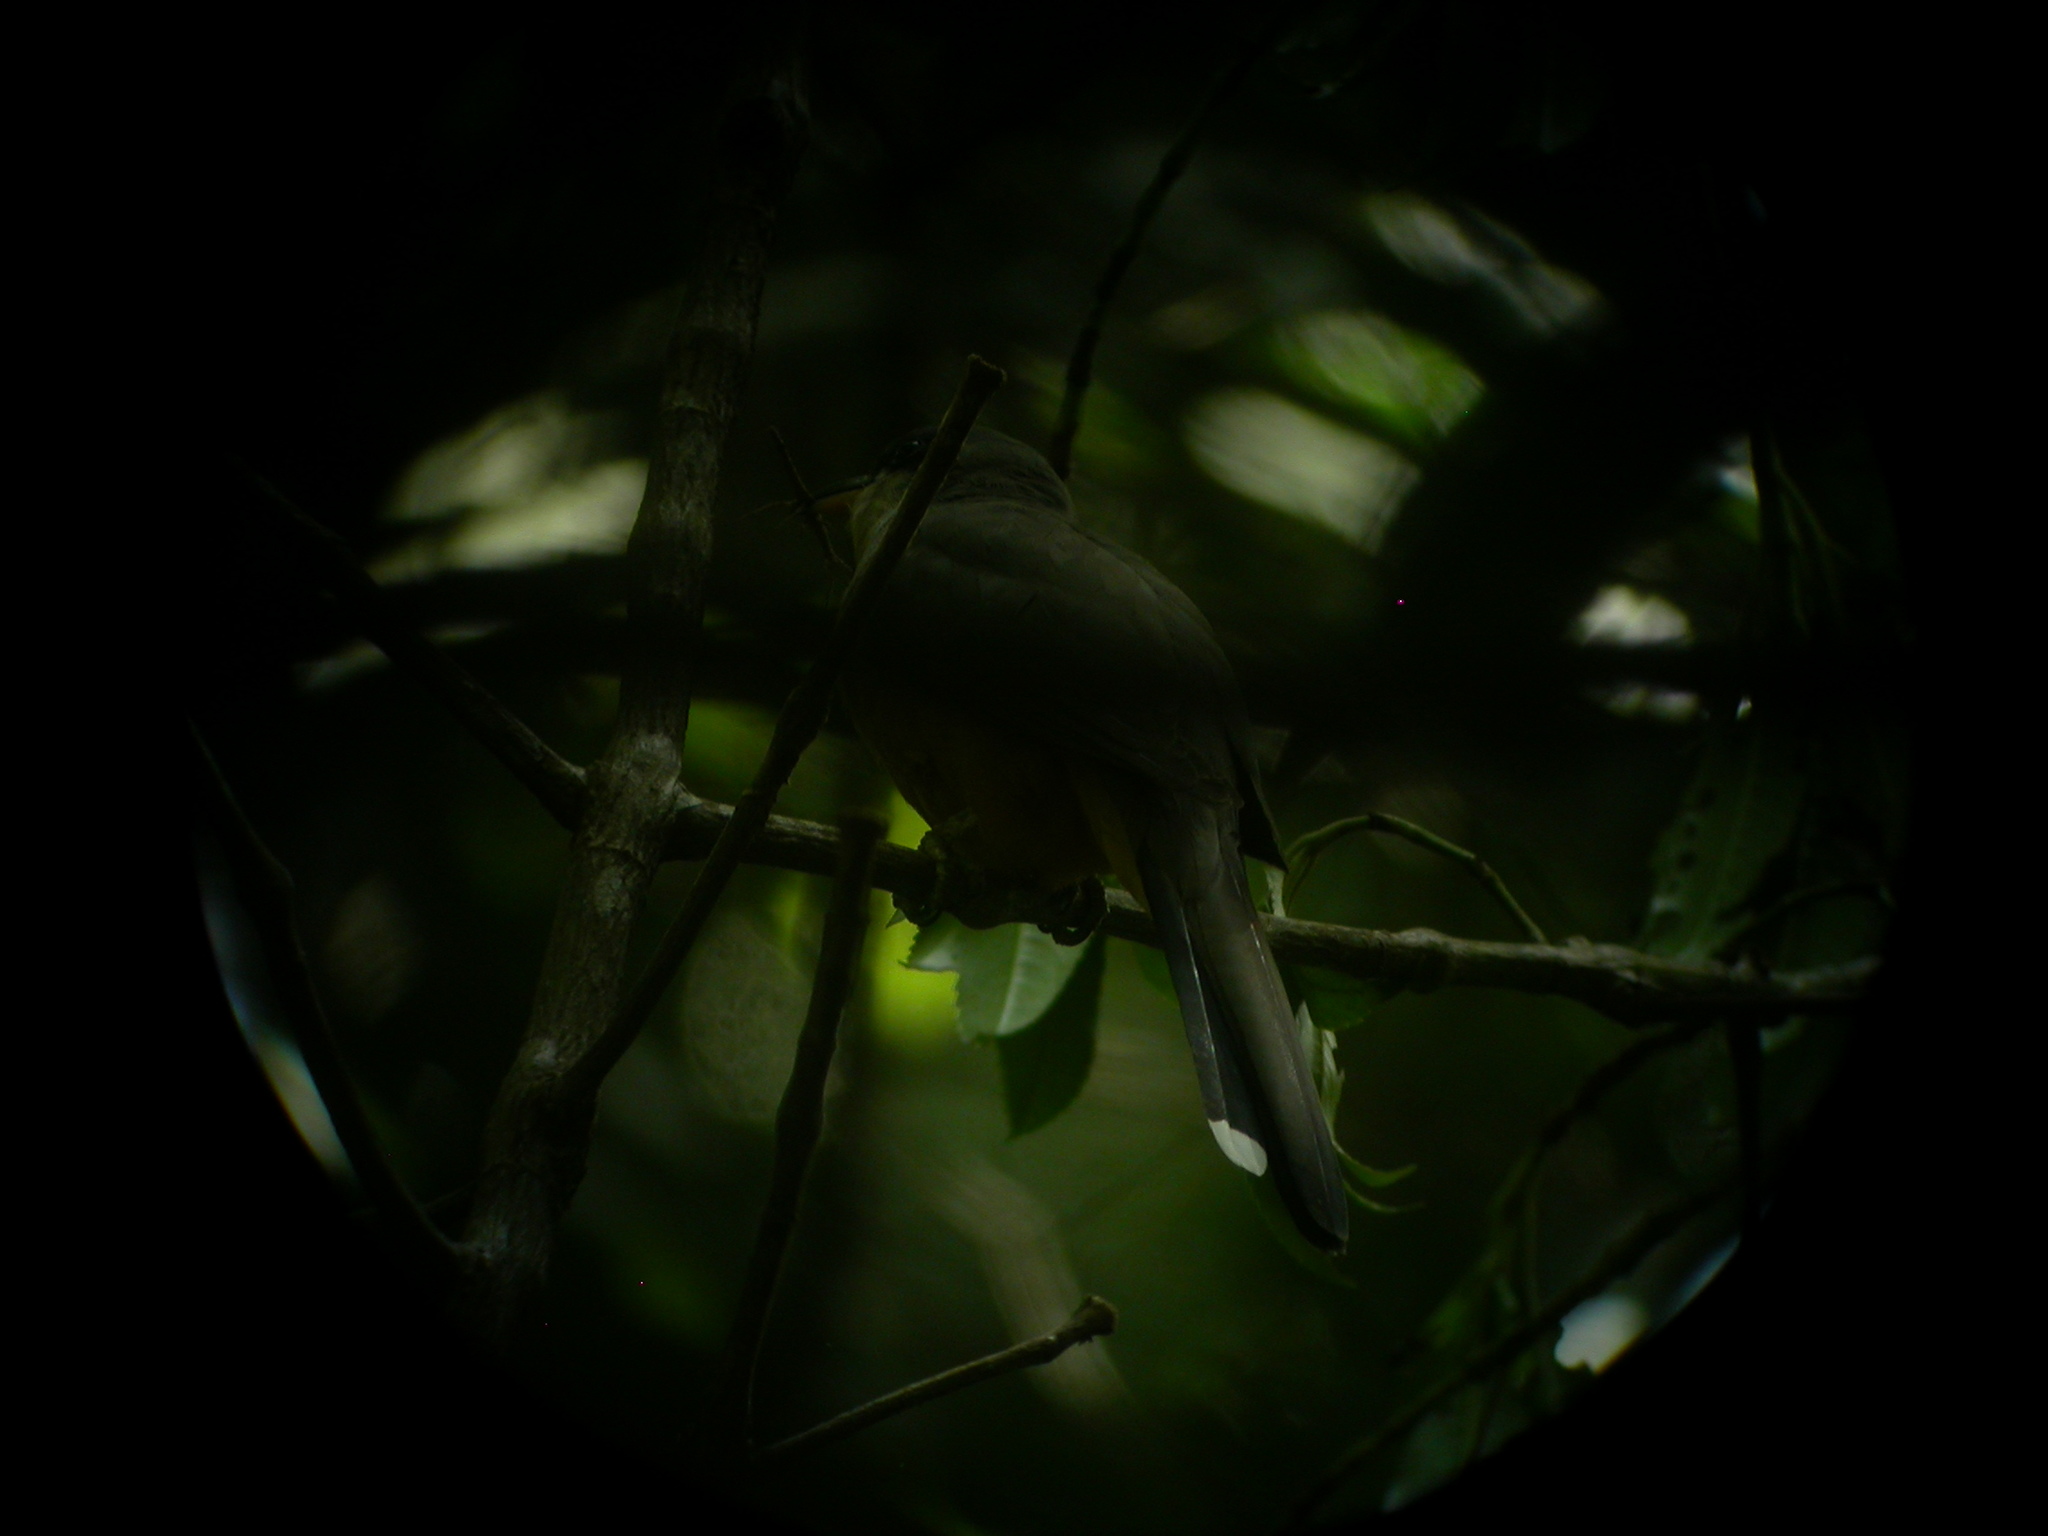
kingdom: Animalia
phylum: Chordata
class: Aves
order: Cuculiformes
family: Cuculidae
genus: Coccyzus
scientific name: Coccyzus minor
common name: Mangrove cuckoo
